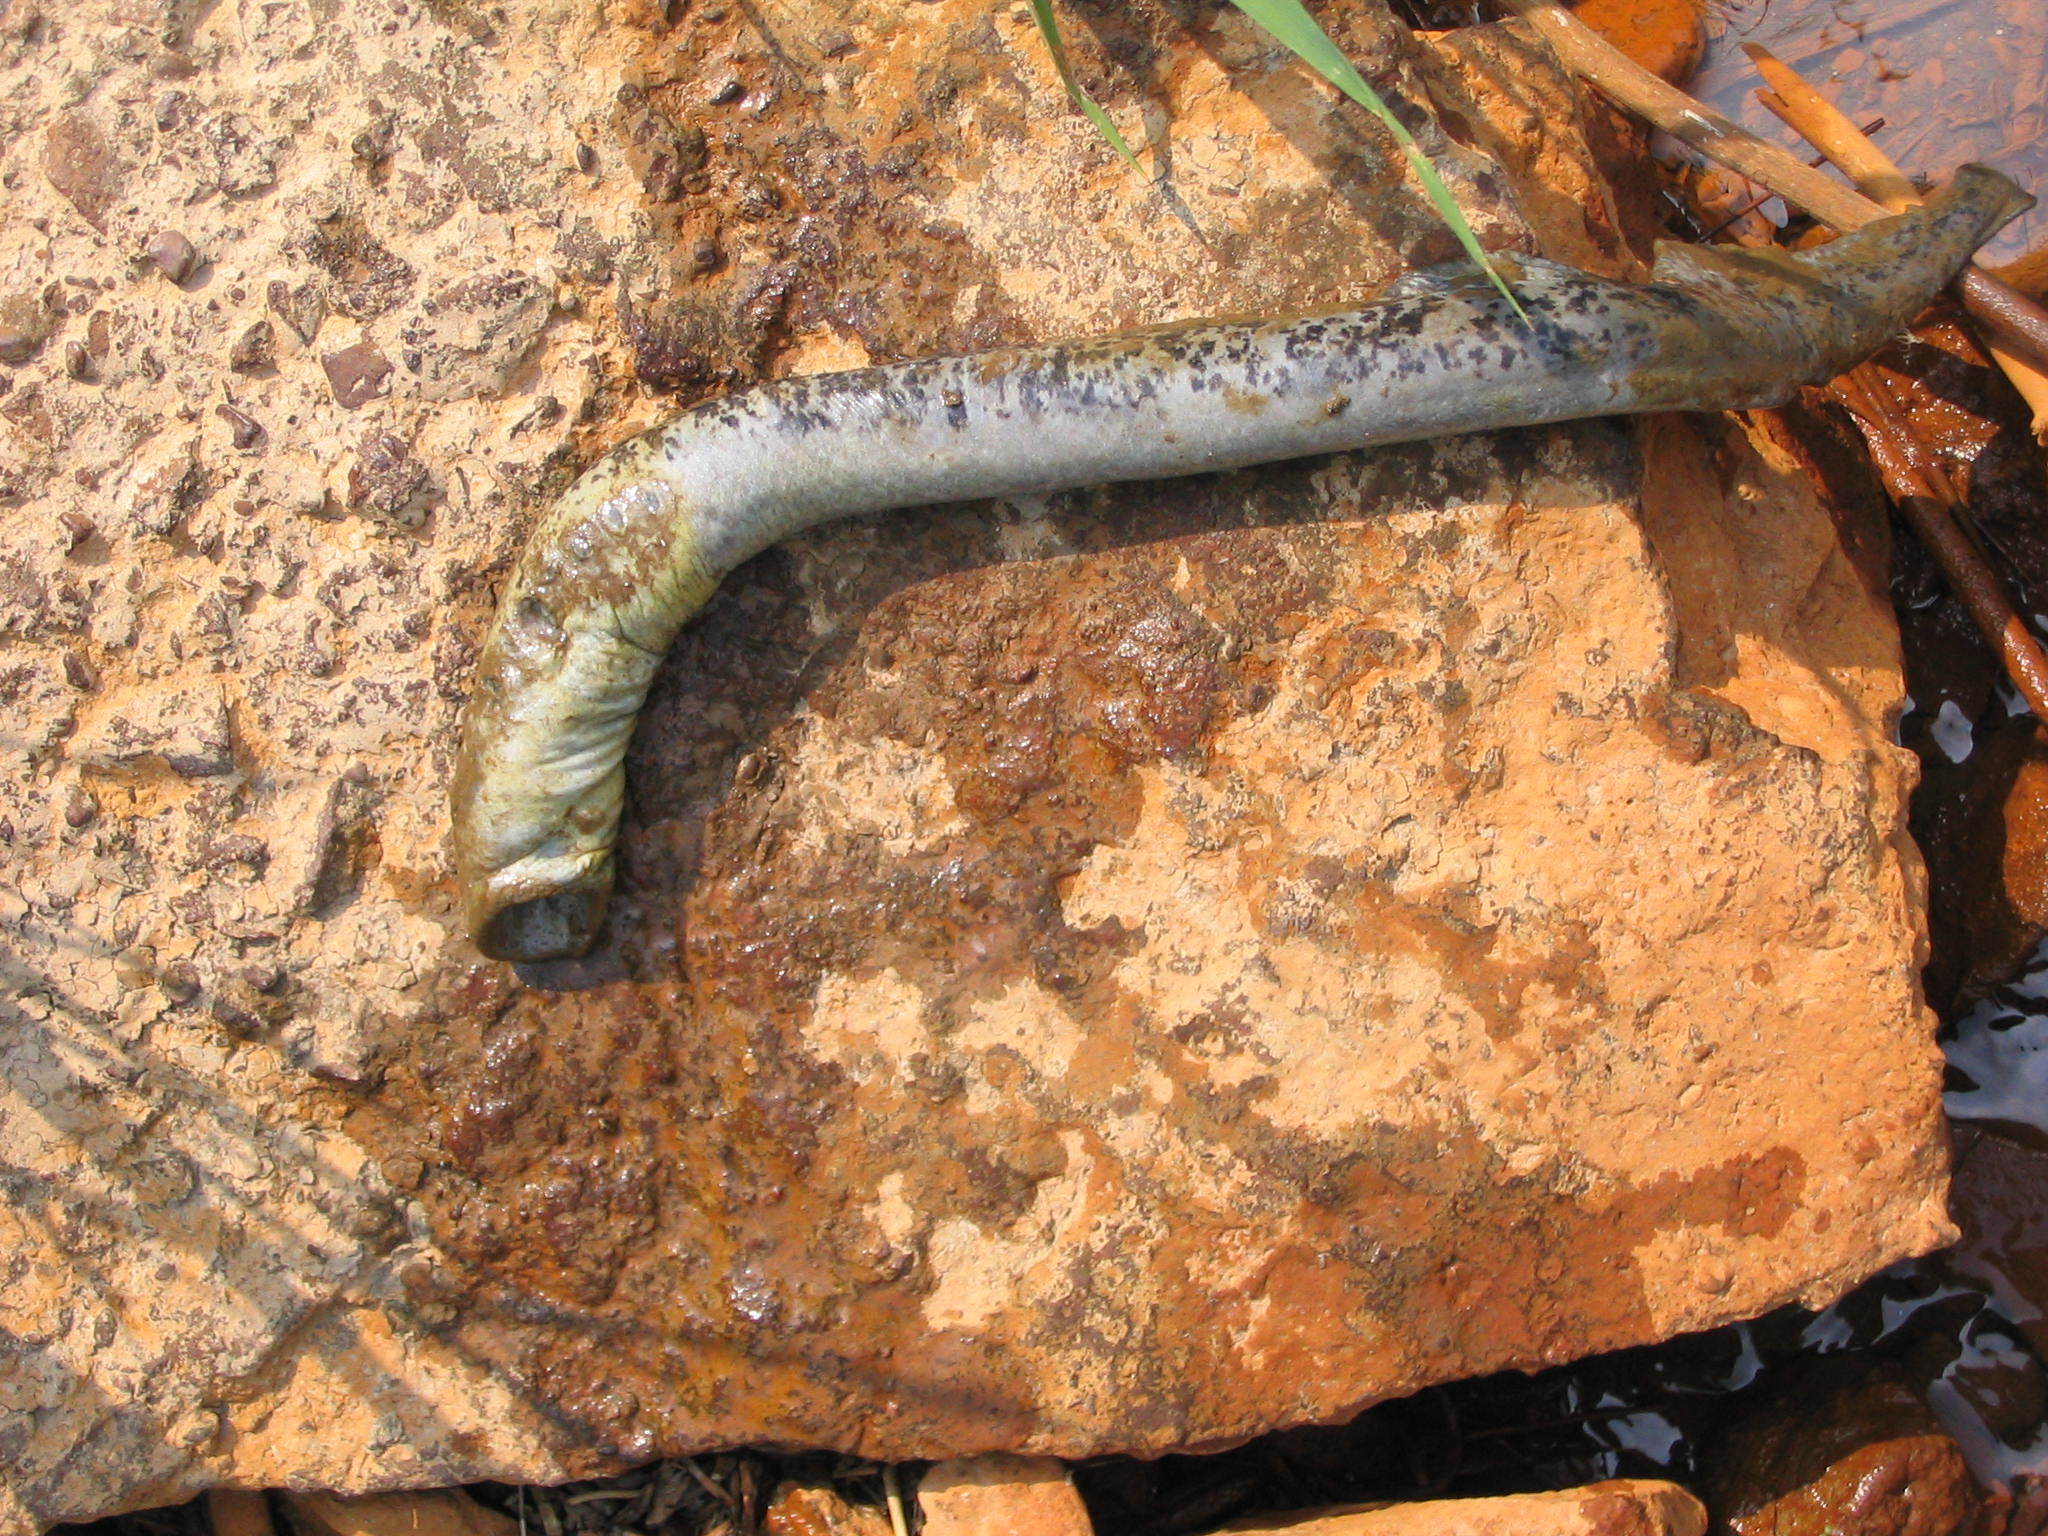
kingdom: Animalia
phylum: Chordata
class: Petromyzonti
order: Petromyzontiformes
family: Petromyzontidae
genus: Petromyzon
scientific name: Petromyzon marinus
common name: Sea lamprey
